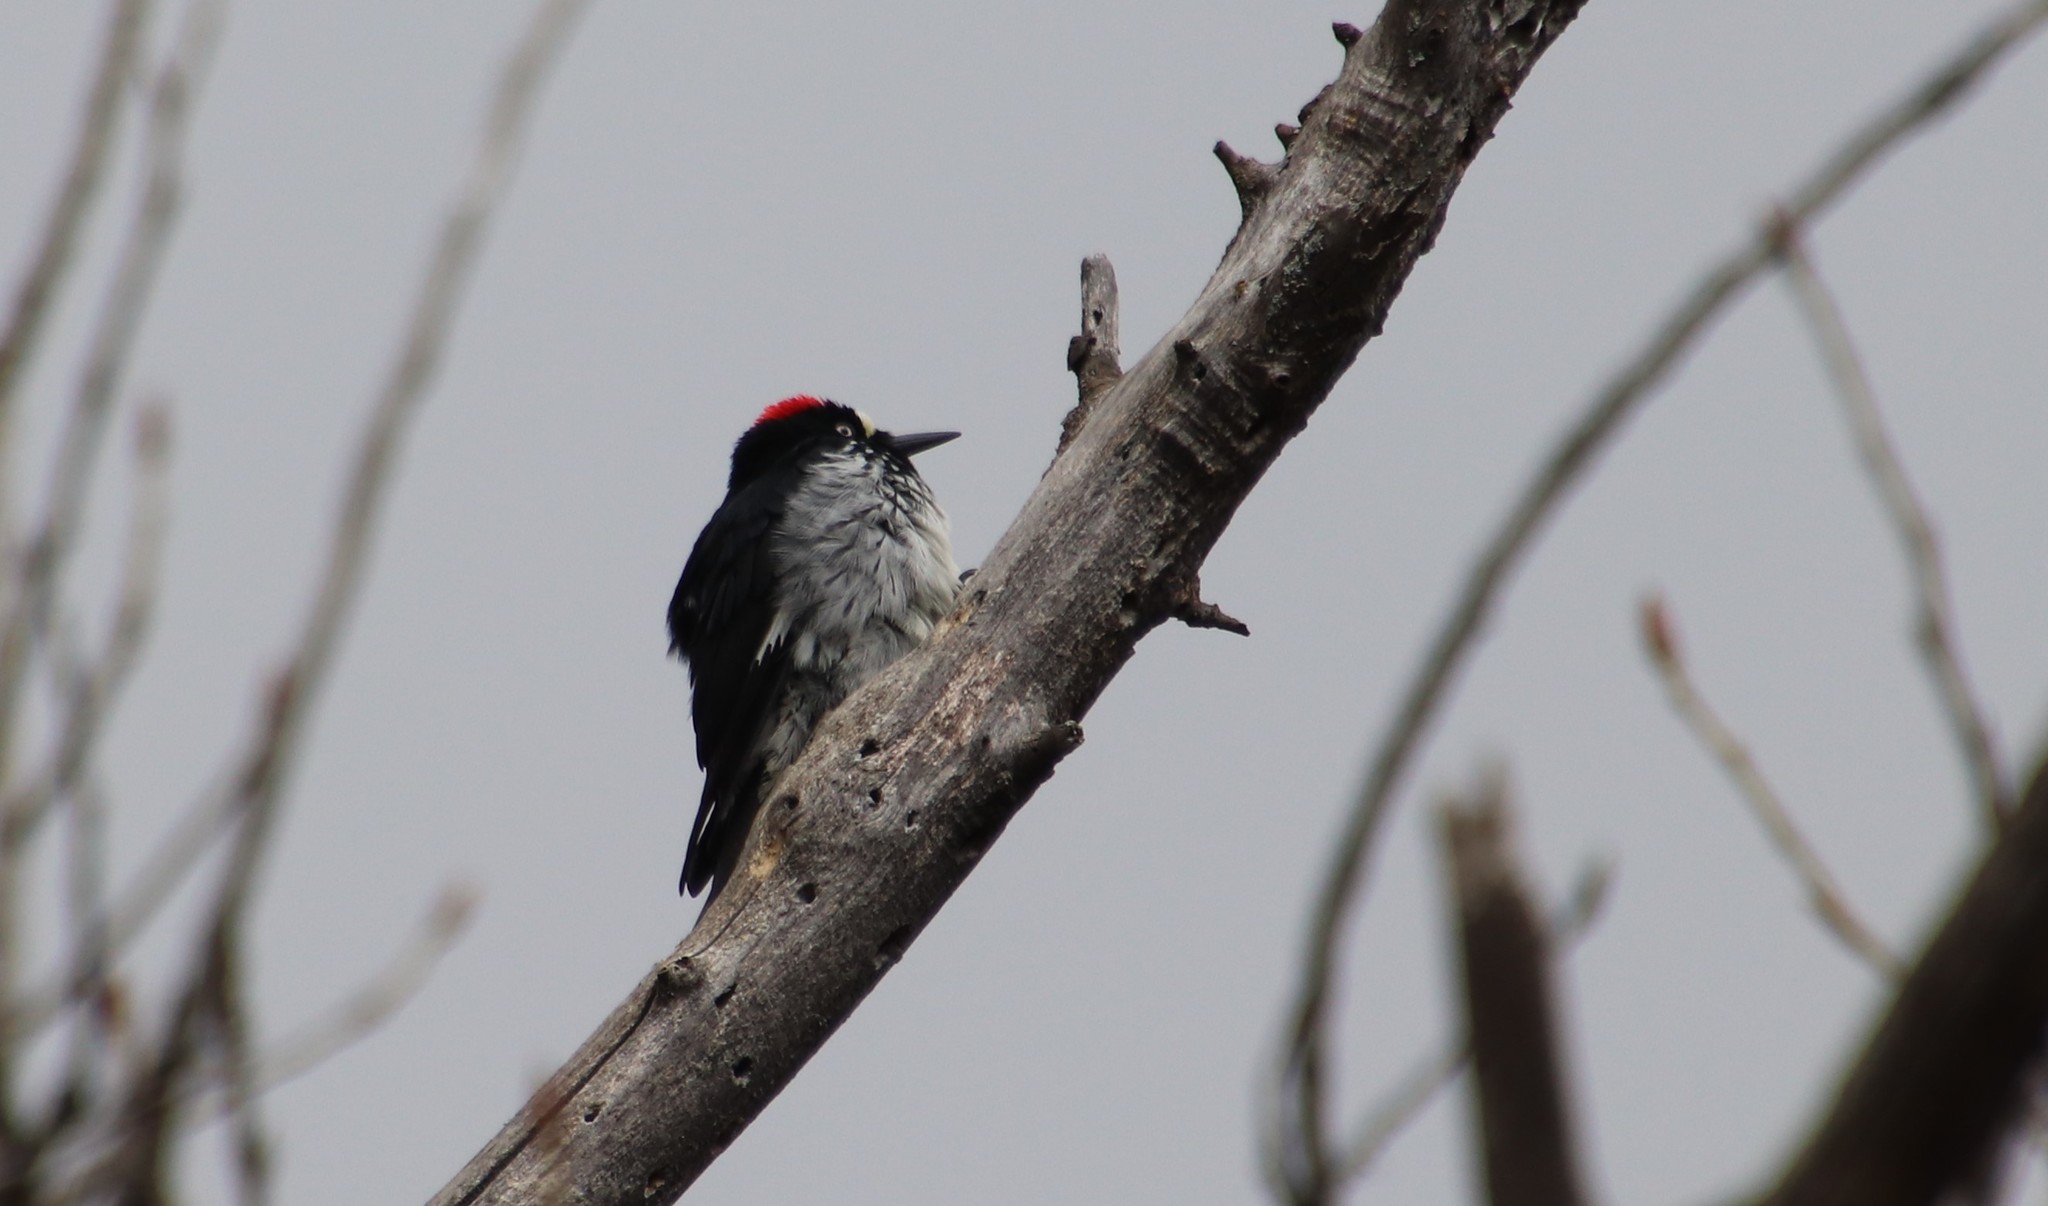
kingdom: Animalia
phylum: Chordata
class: Aves
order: Piciformes
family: Picidae
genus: Melanerpes
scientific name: Melanerpes formicivorus
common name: Acorn woodpecker
